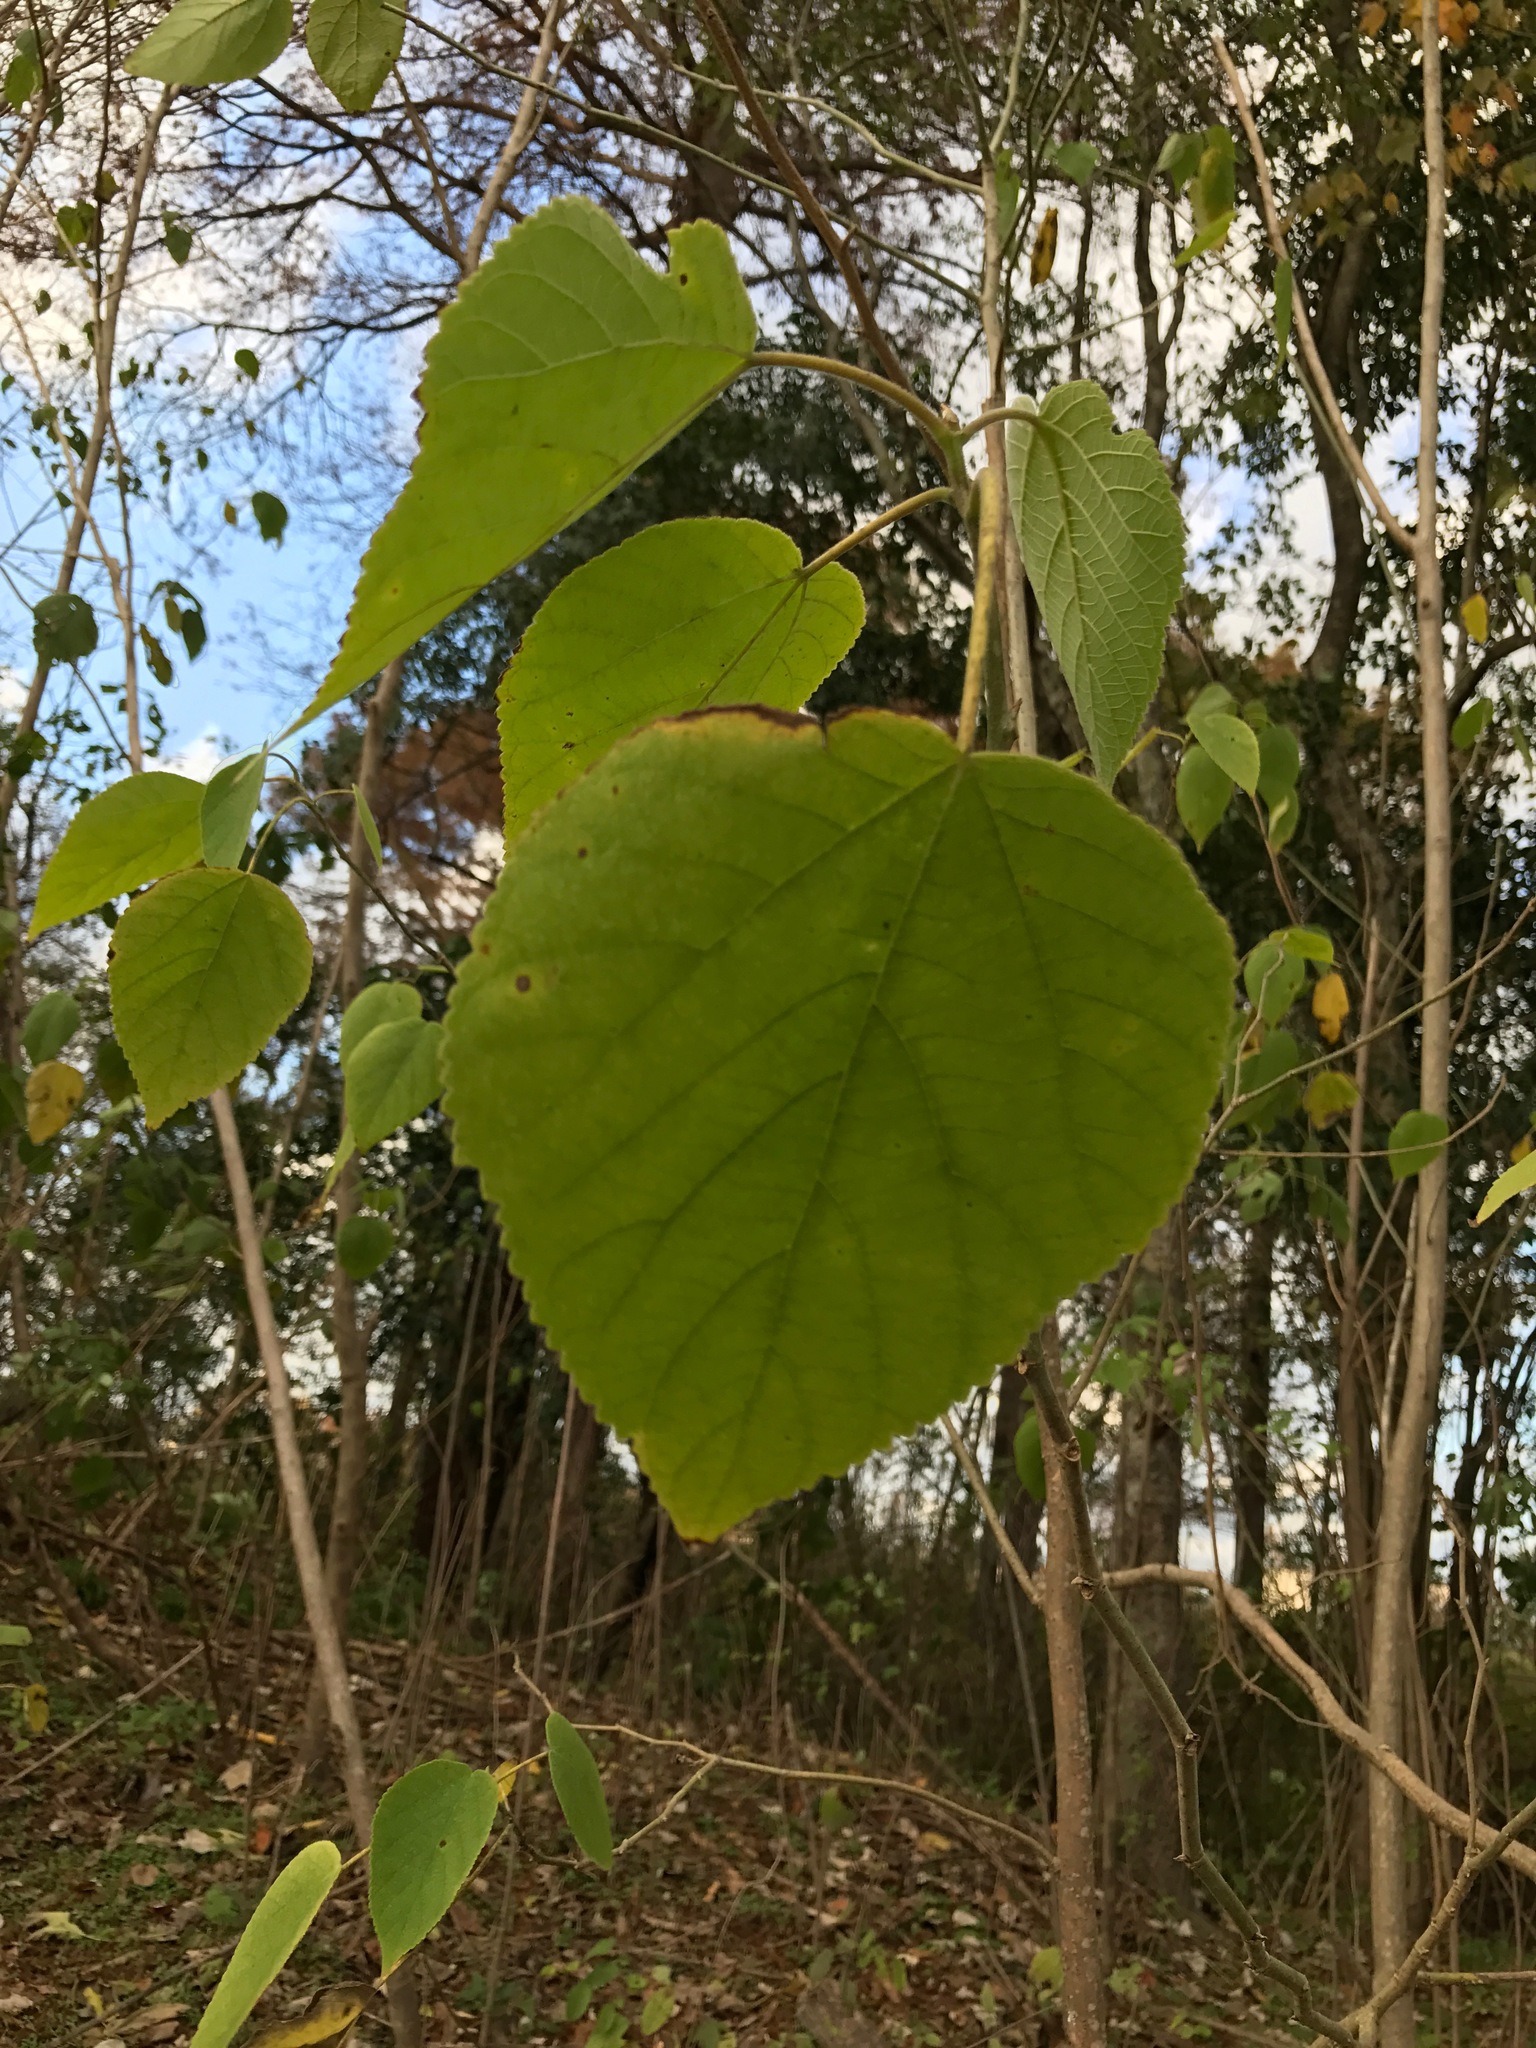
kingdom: Plantae
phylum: Tracheophyta
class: Magnoliopsida
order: Rosales
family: Moraceae
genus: Broussonetia
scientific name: Broussonetia papyrifera
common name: Paper mulberry
